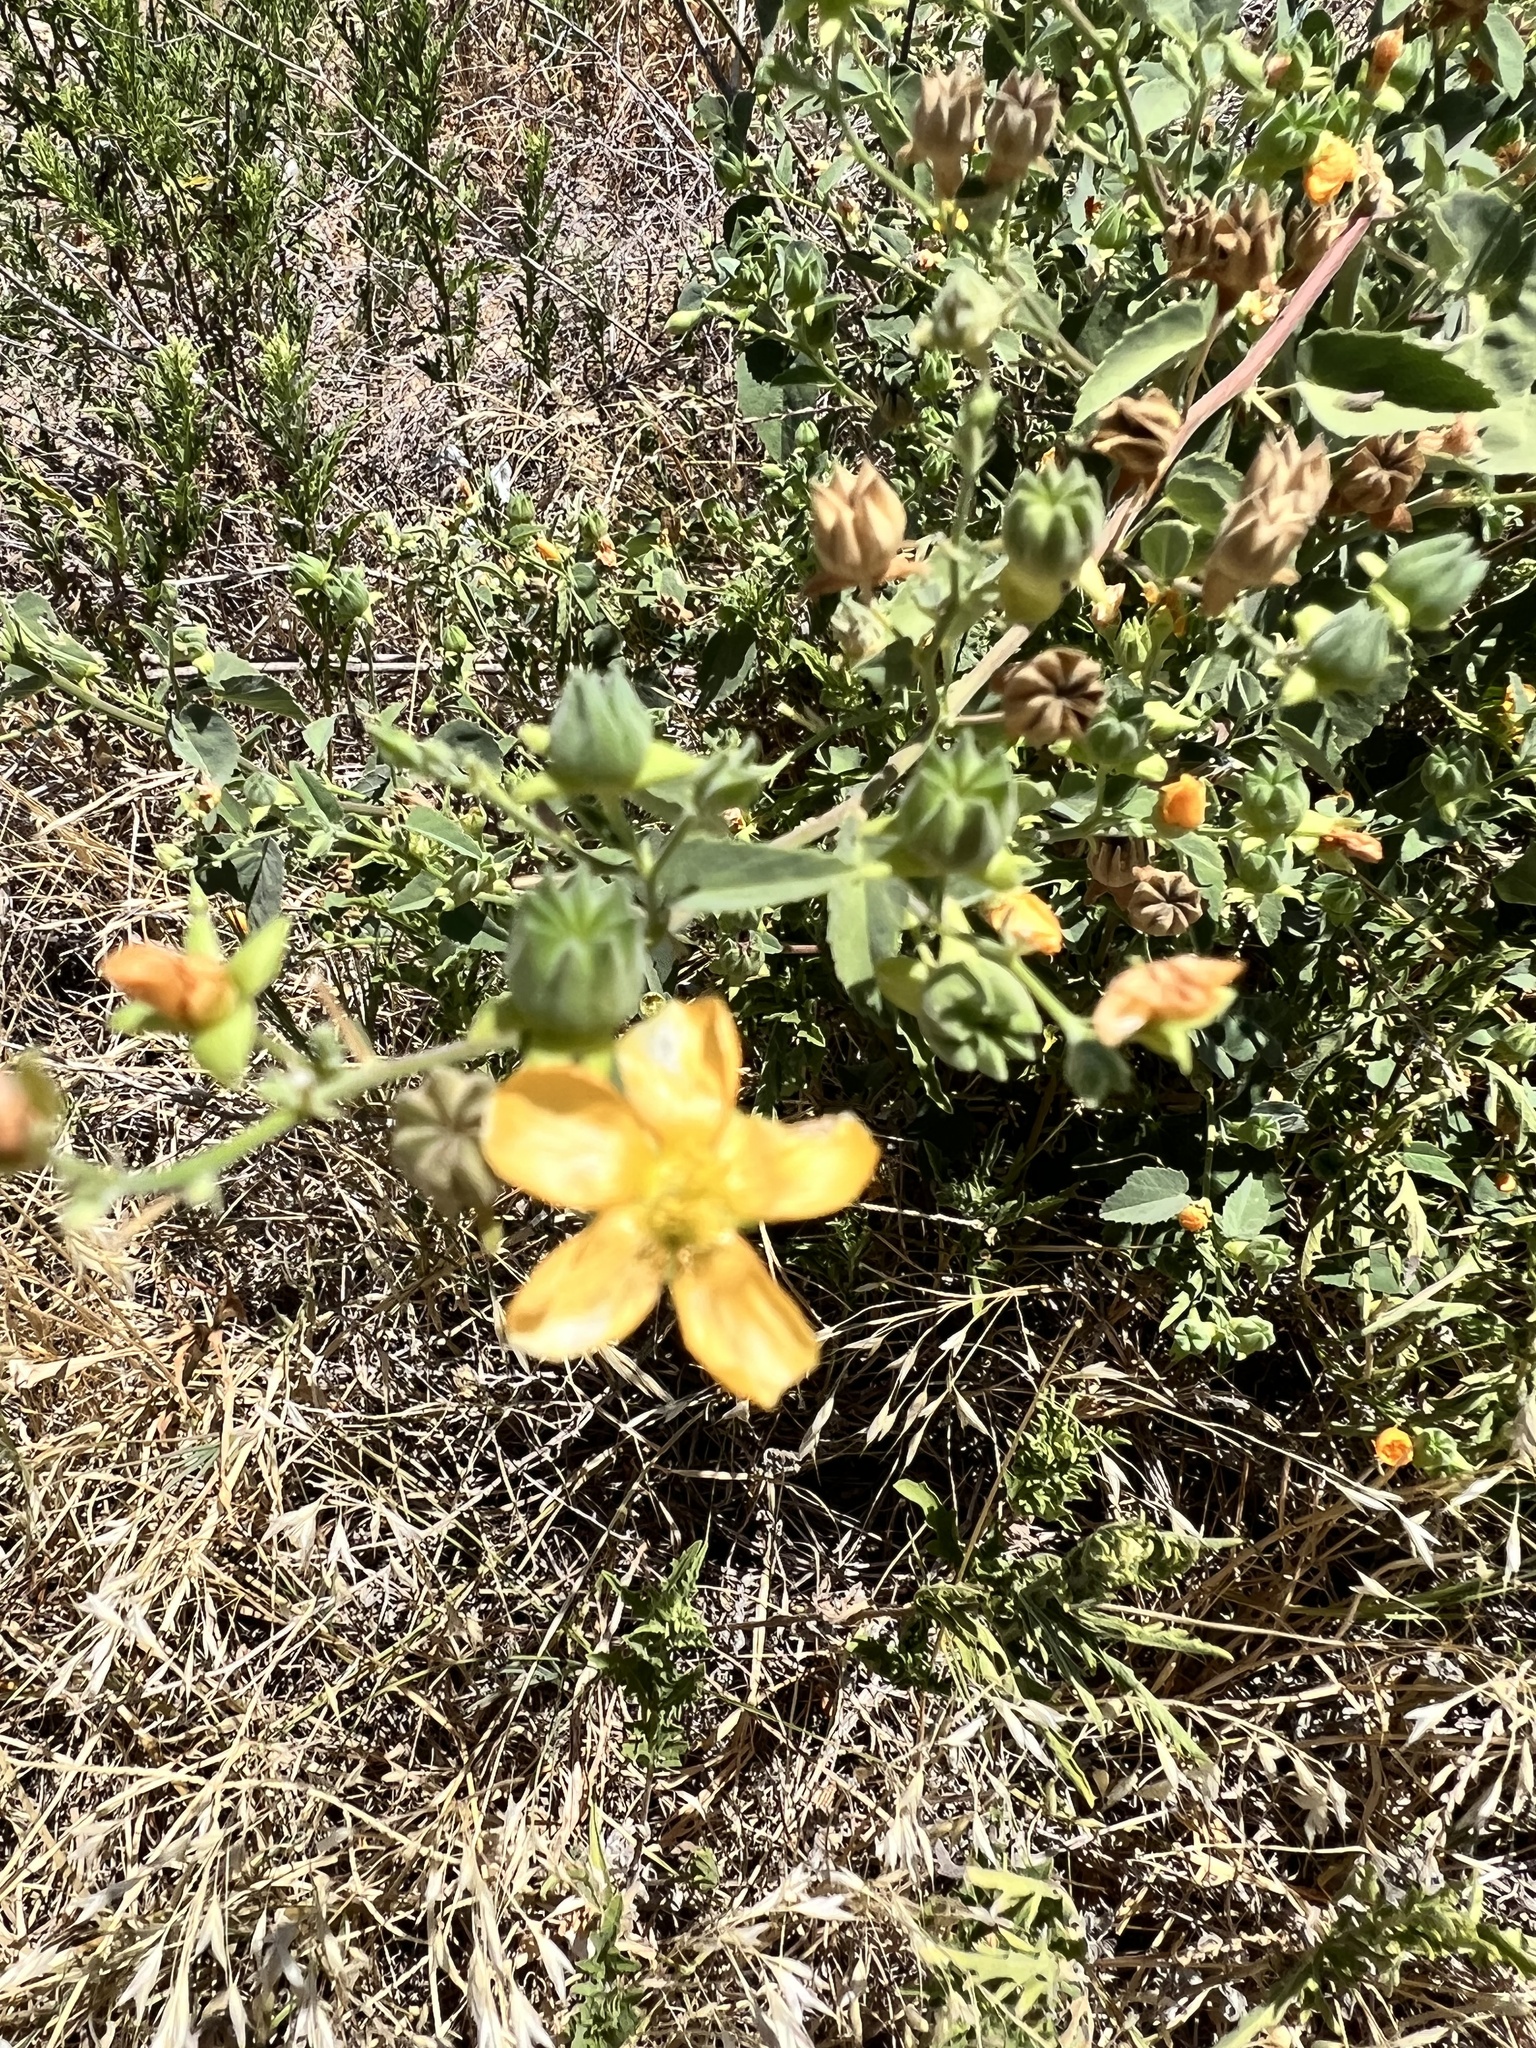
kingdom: Plantae
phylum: Tracheophyta
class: Magnoliopsida
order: Malvales
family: Malvaceae
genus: Abutilon
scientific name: Abutilon fruticosum
